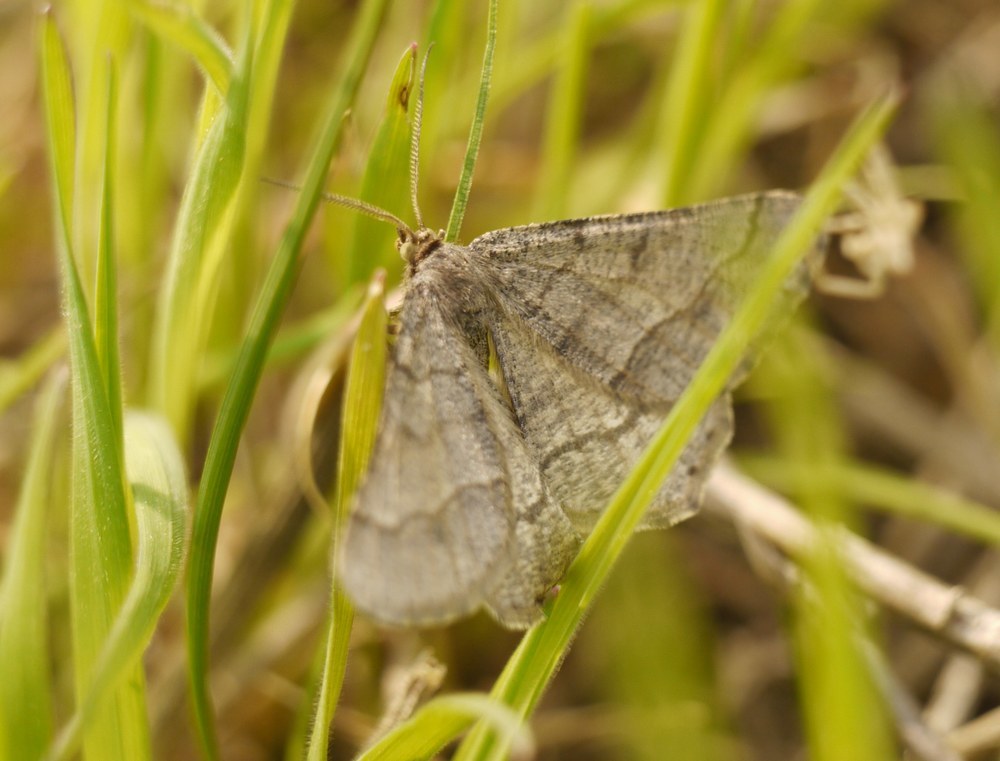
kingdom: Animalia
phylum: Arthropoda
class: Insecta
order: Lepidoptera
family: Geometridae
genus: Tephrina
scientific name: Tephrina murinaria
